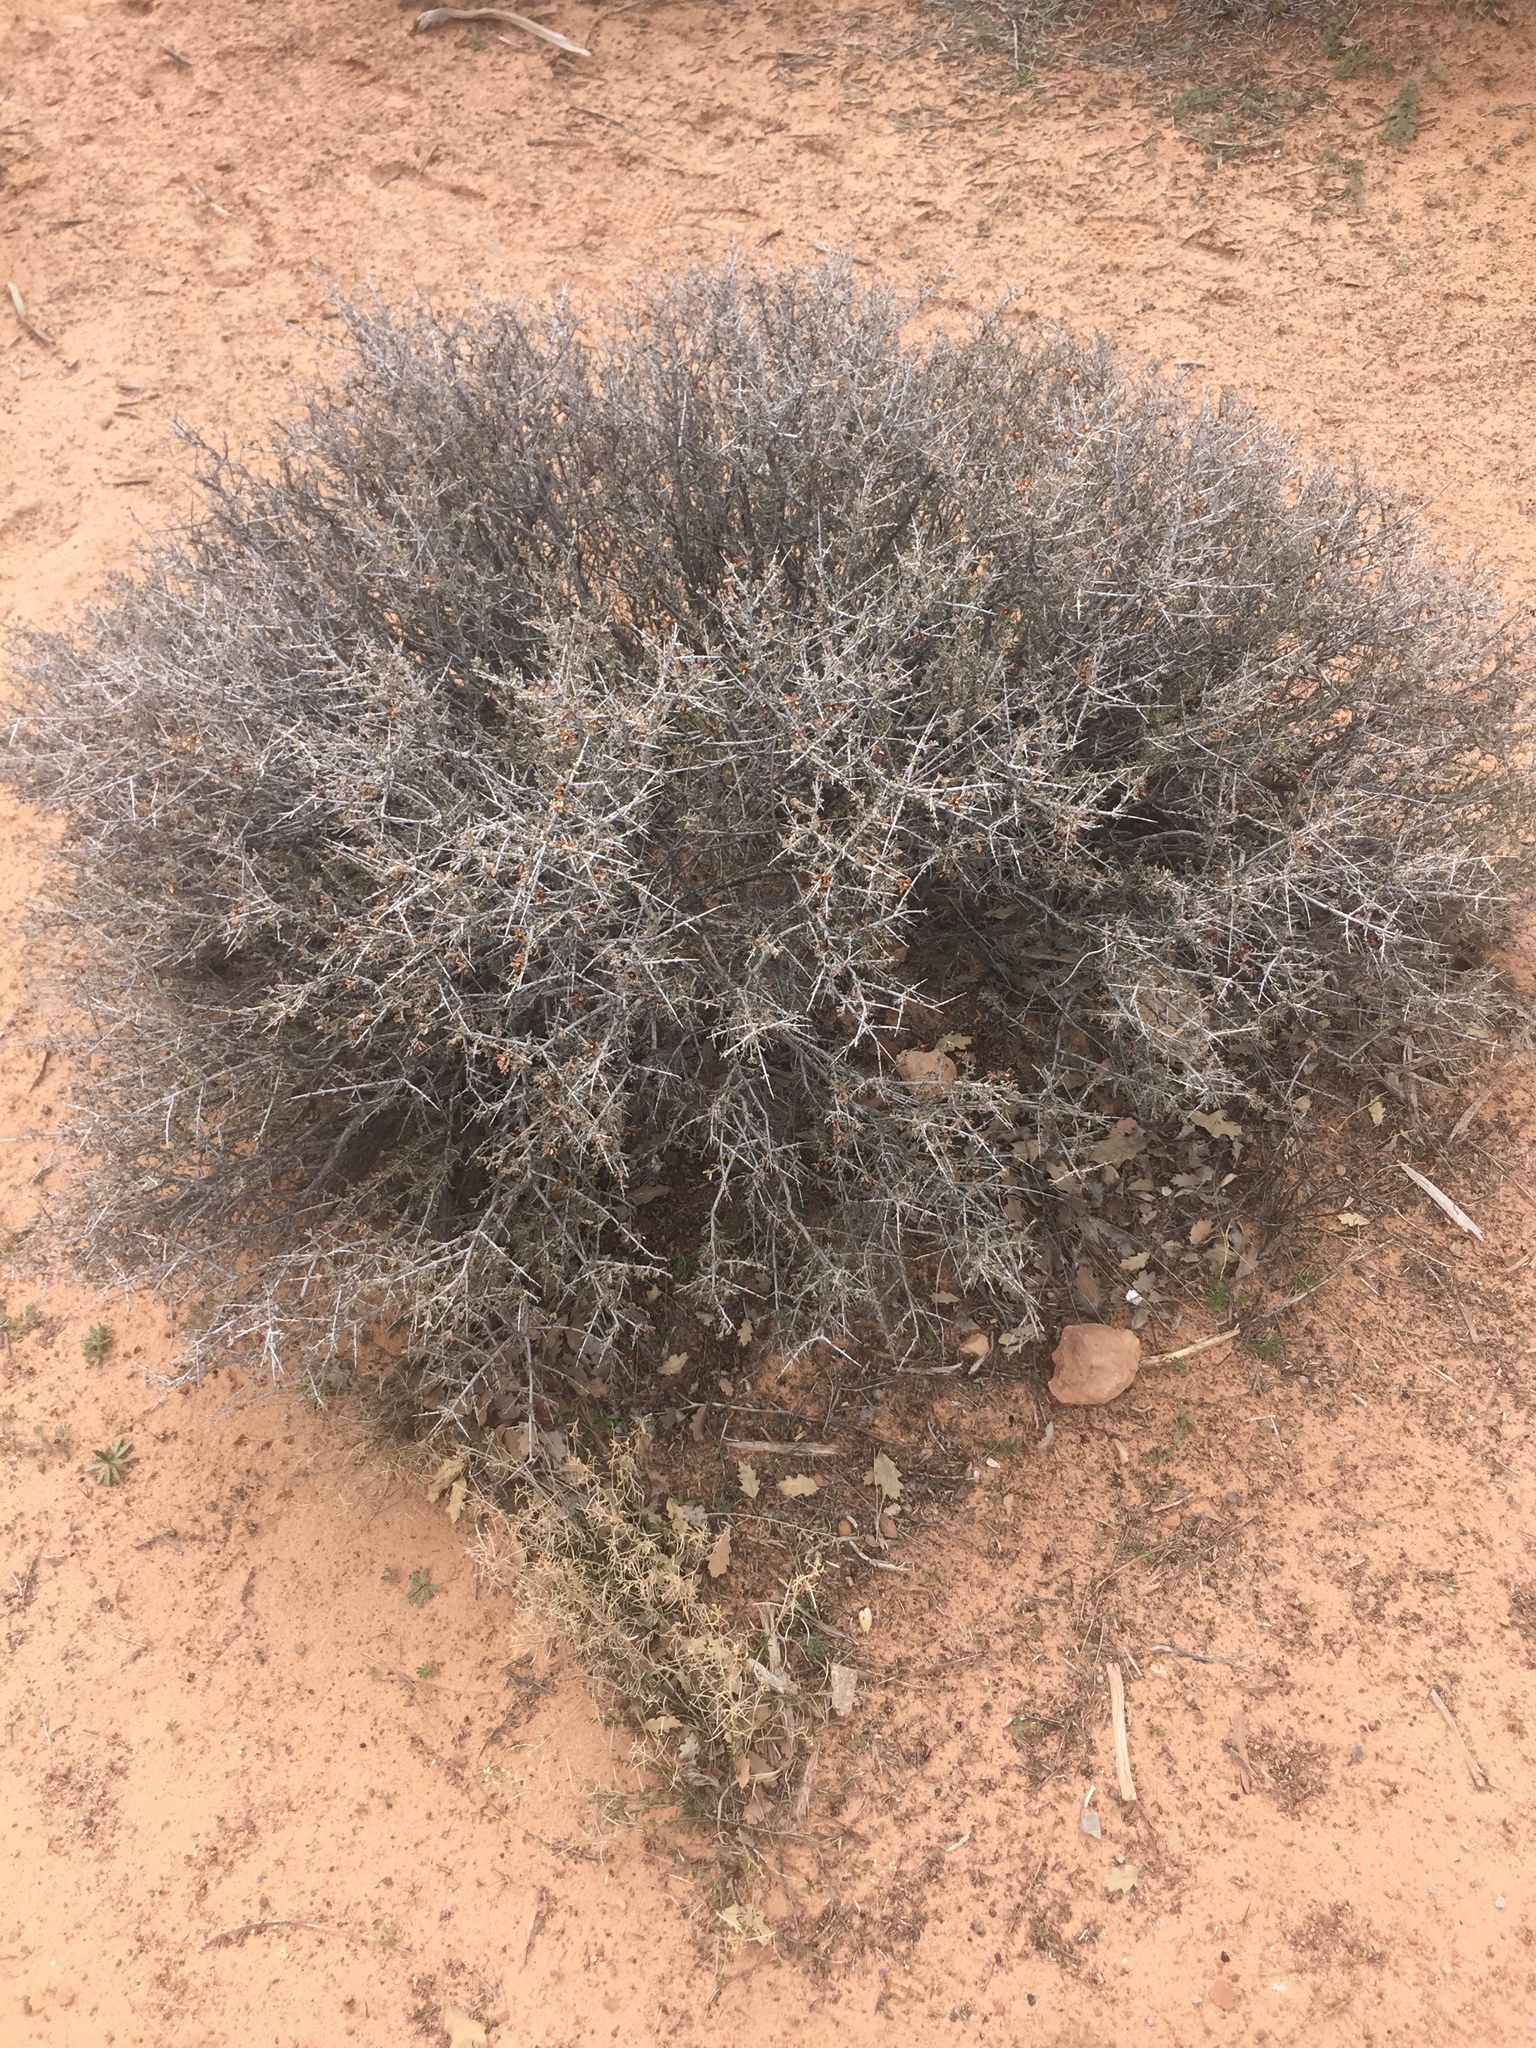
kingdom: Plantae
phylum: Tracheophyta
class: Magnoliopsida
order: Rosales
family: Rosaceae
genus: Coleogyne
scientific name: Coleogyne ramosissima
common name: Blackbrush
